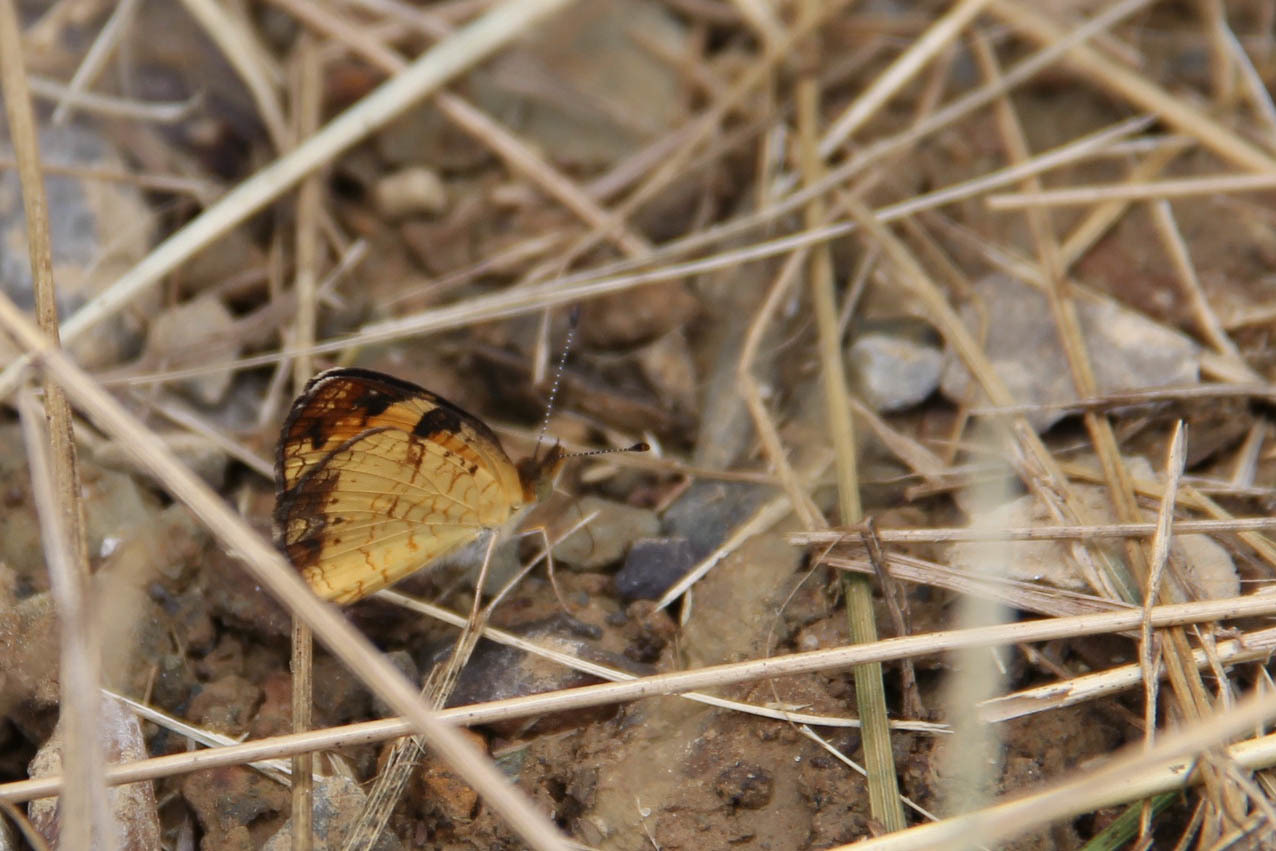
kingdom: Animalia
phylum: Arthropoda
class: Insecta
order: Lepidoptera
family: Nymphalidae
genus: Phyciodes
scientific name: Phyciodes tharos
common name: Pearl crescent
